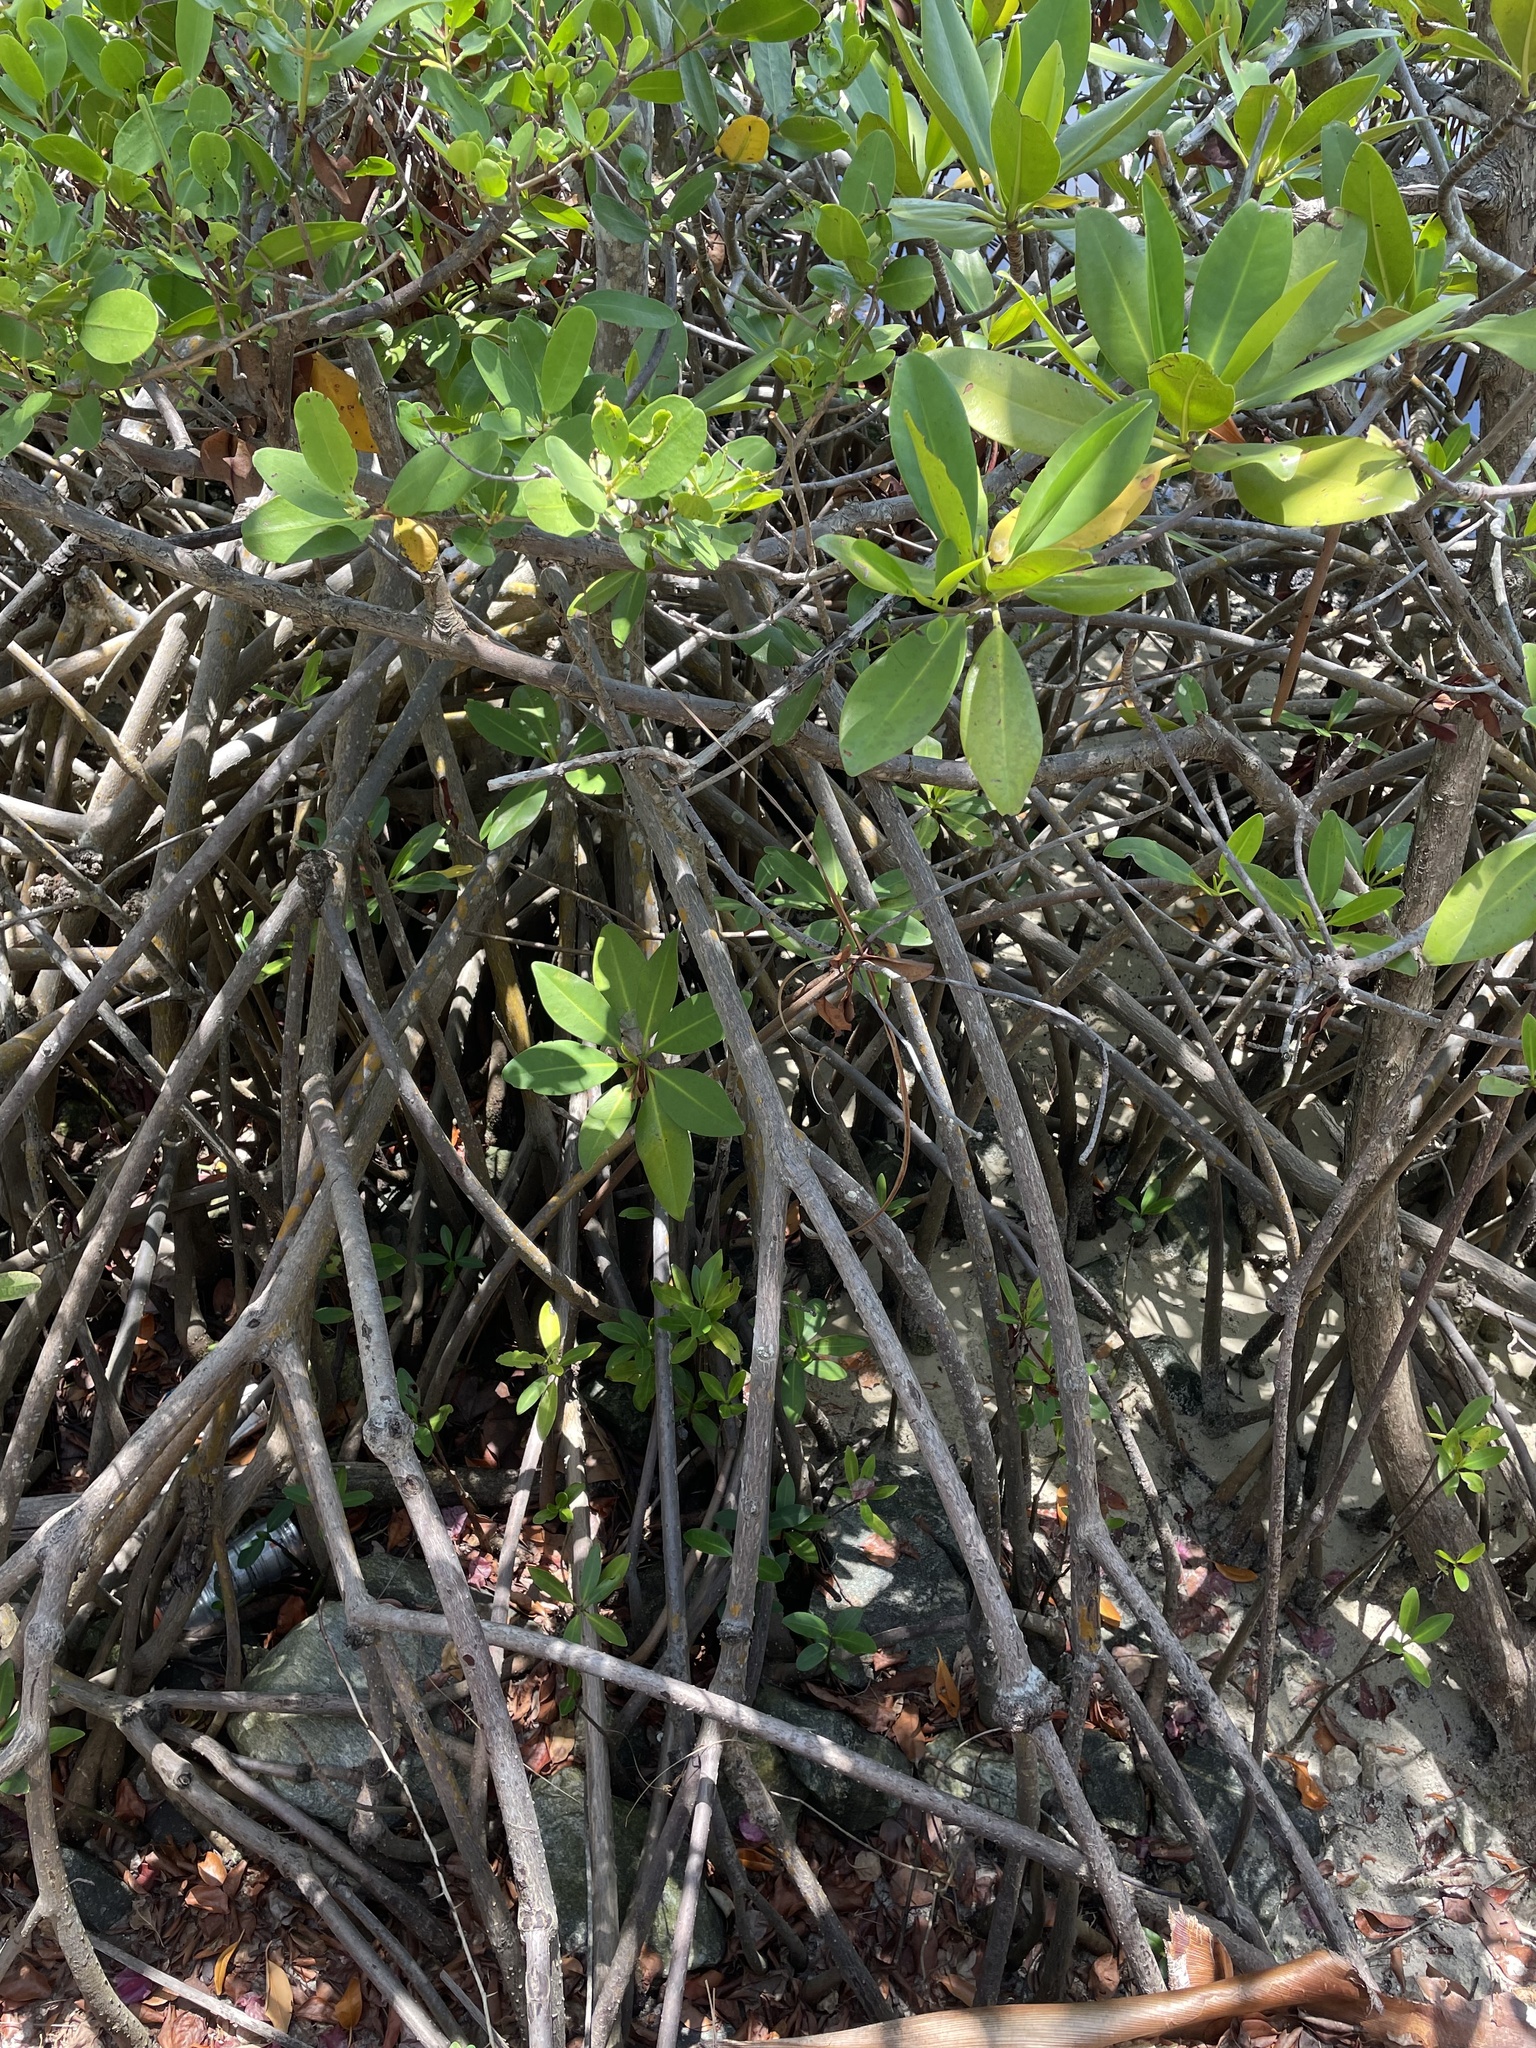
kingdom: Plantae
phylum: Tracheophyta
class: Magnoliopsida
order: Malpighiales
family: Rhizophoraceae
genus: Rhizophora
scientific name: Rhizophora mangle
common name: Red mangrove
